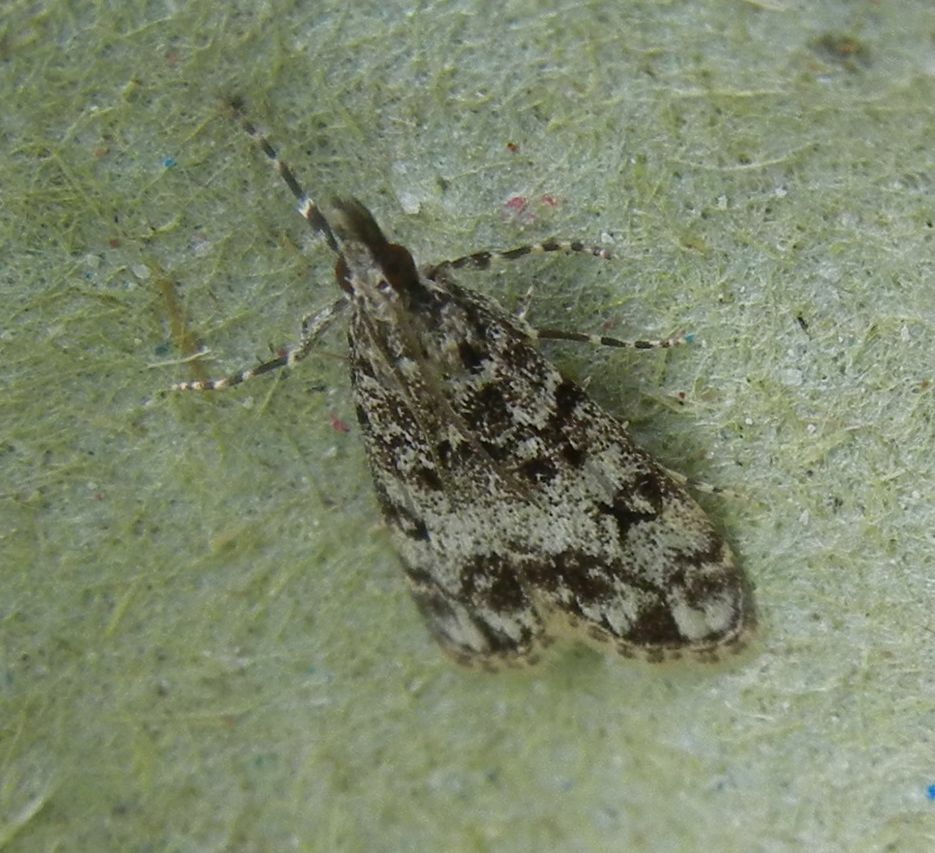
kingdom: Animalia
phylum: Arthropoda
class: Insecta
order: Lepidoptera
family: Crambidae
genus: Eudonia
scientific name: Eudonia lacustrata
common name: Little grey
